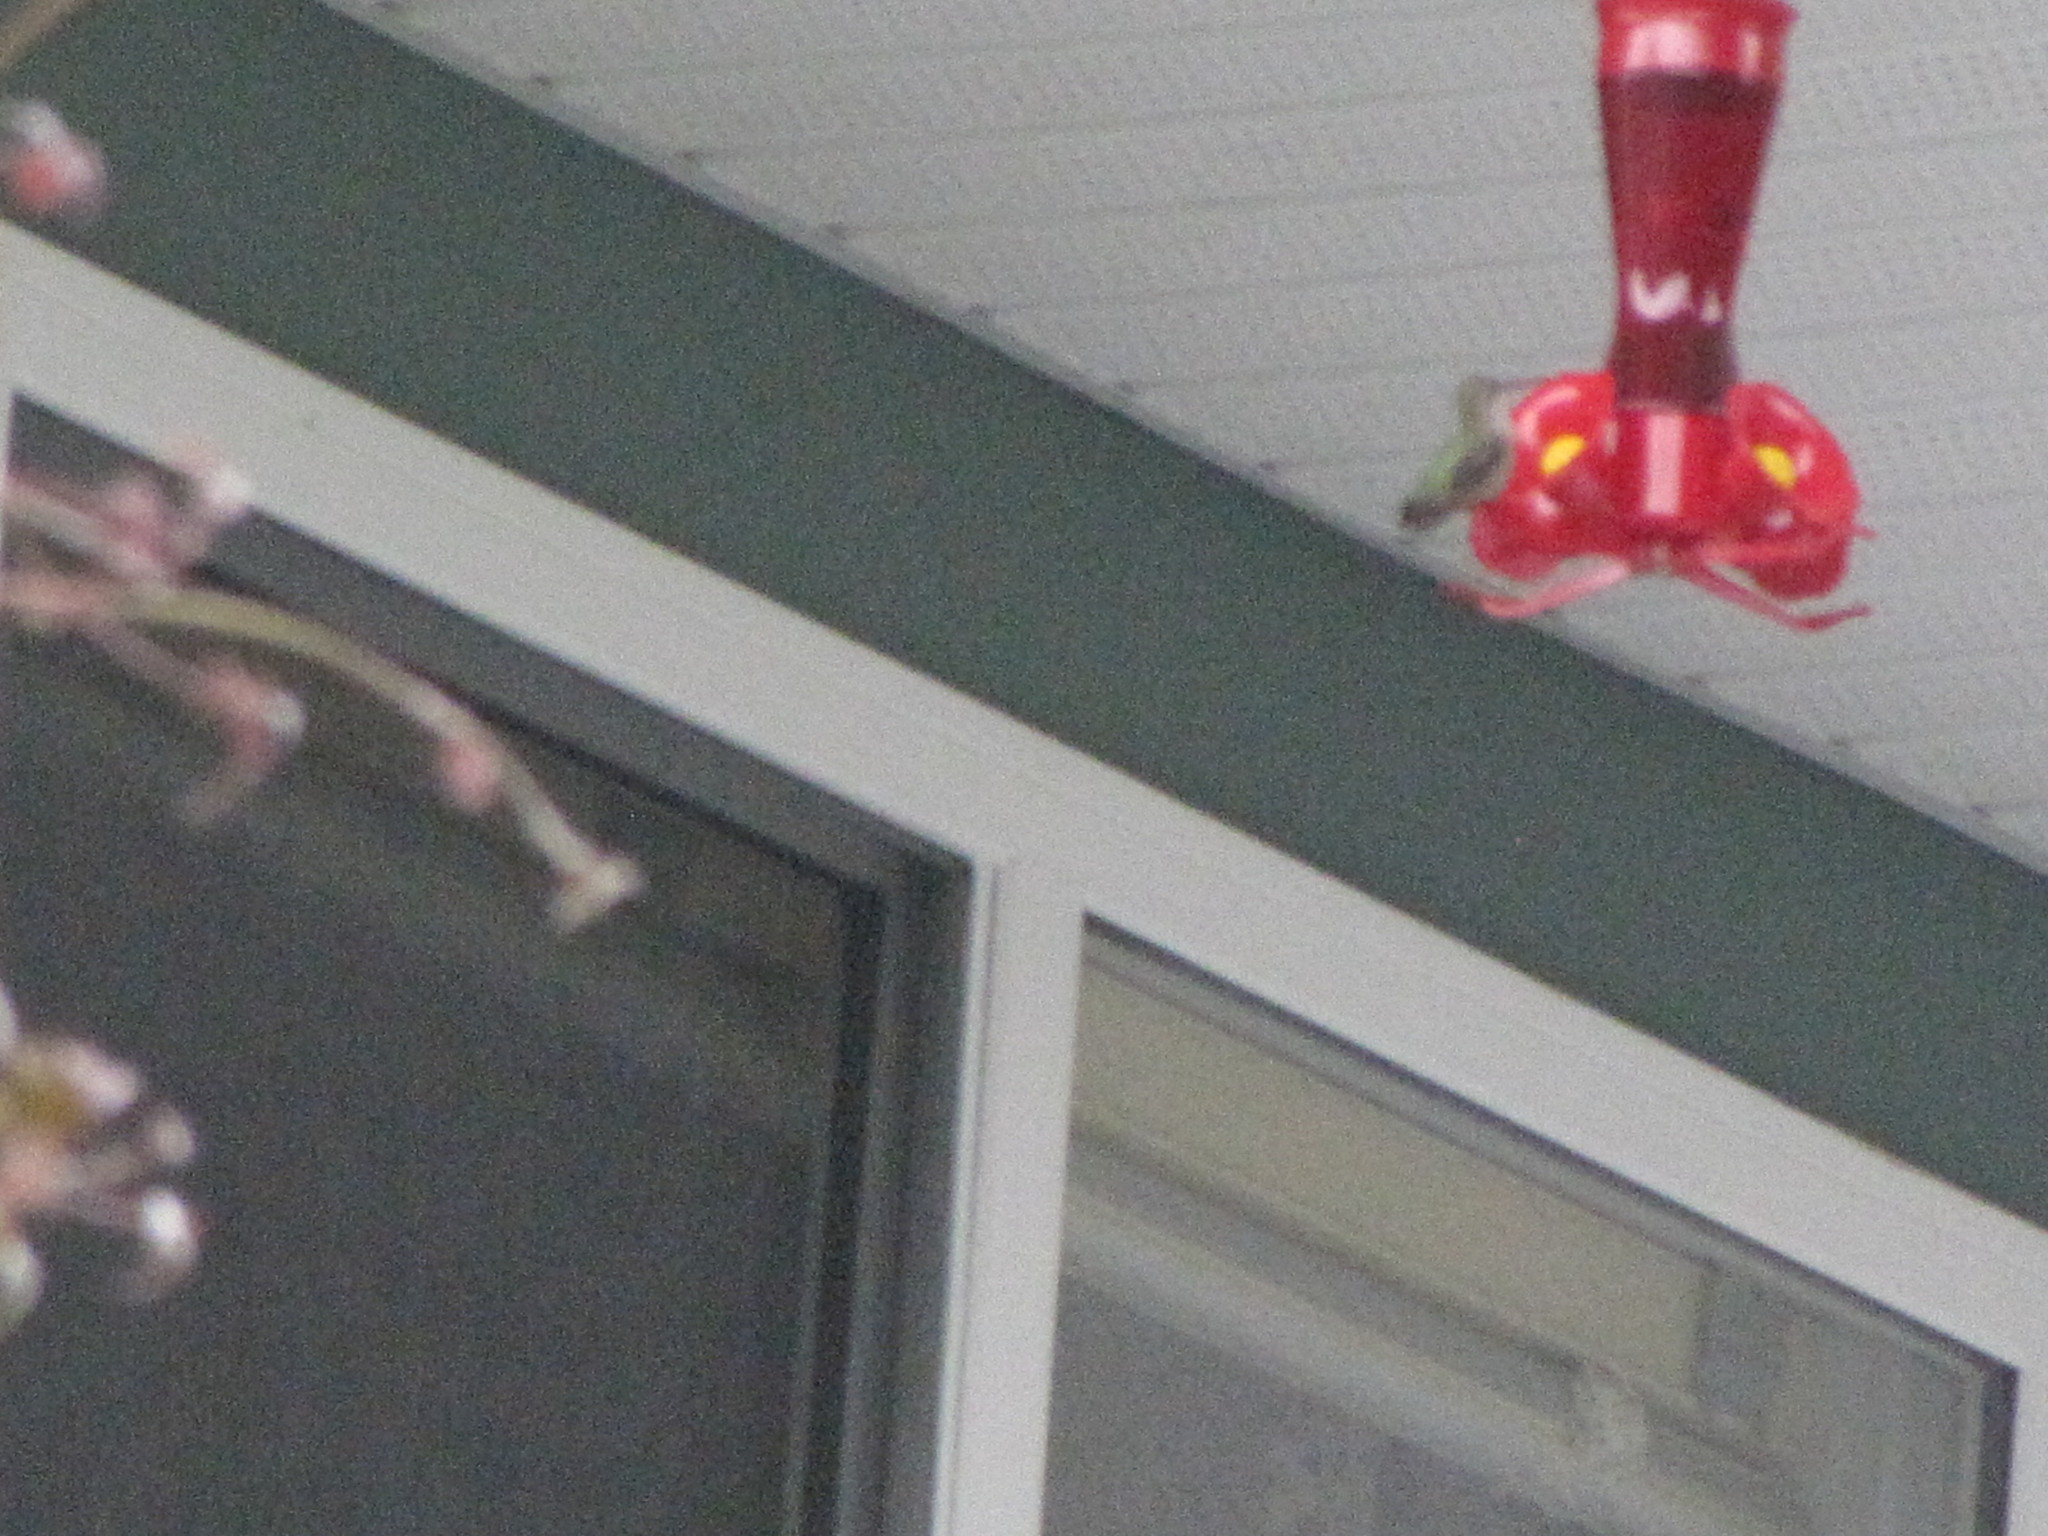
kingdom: Animalia
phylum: Chordata
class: Aves
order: Apodiformes
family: Trochilidae
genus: Calypte
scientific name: Calypte anna
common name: Anna's hummingbird
